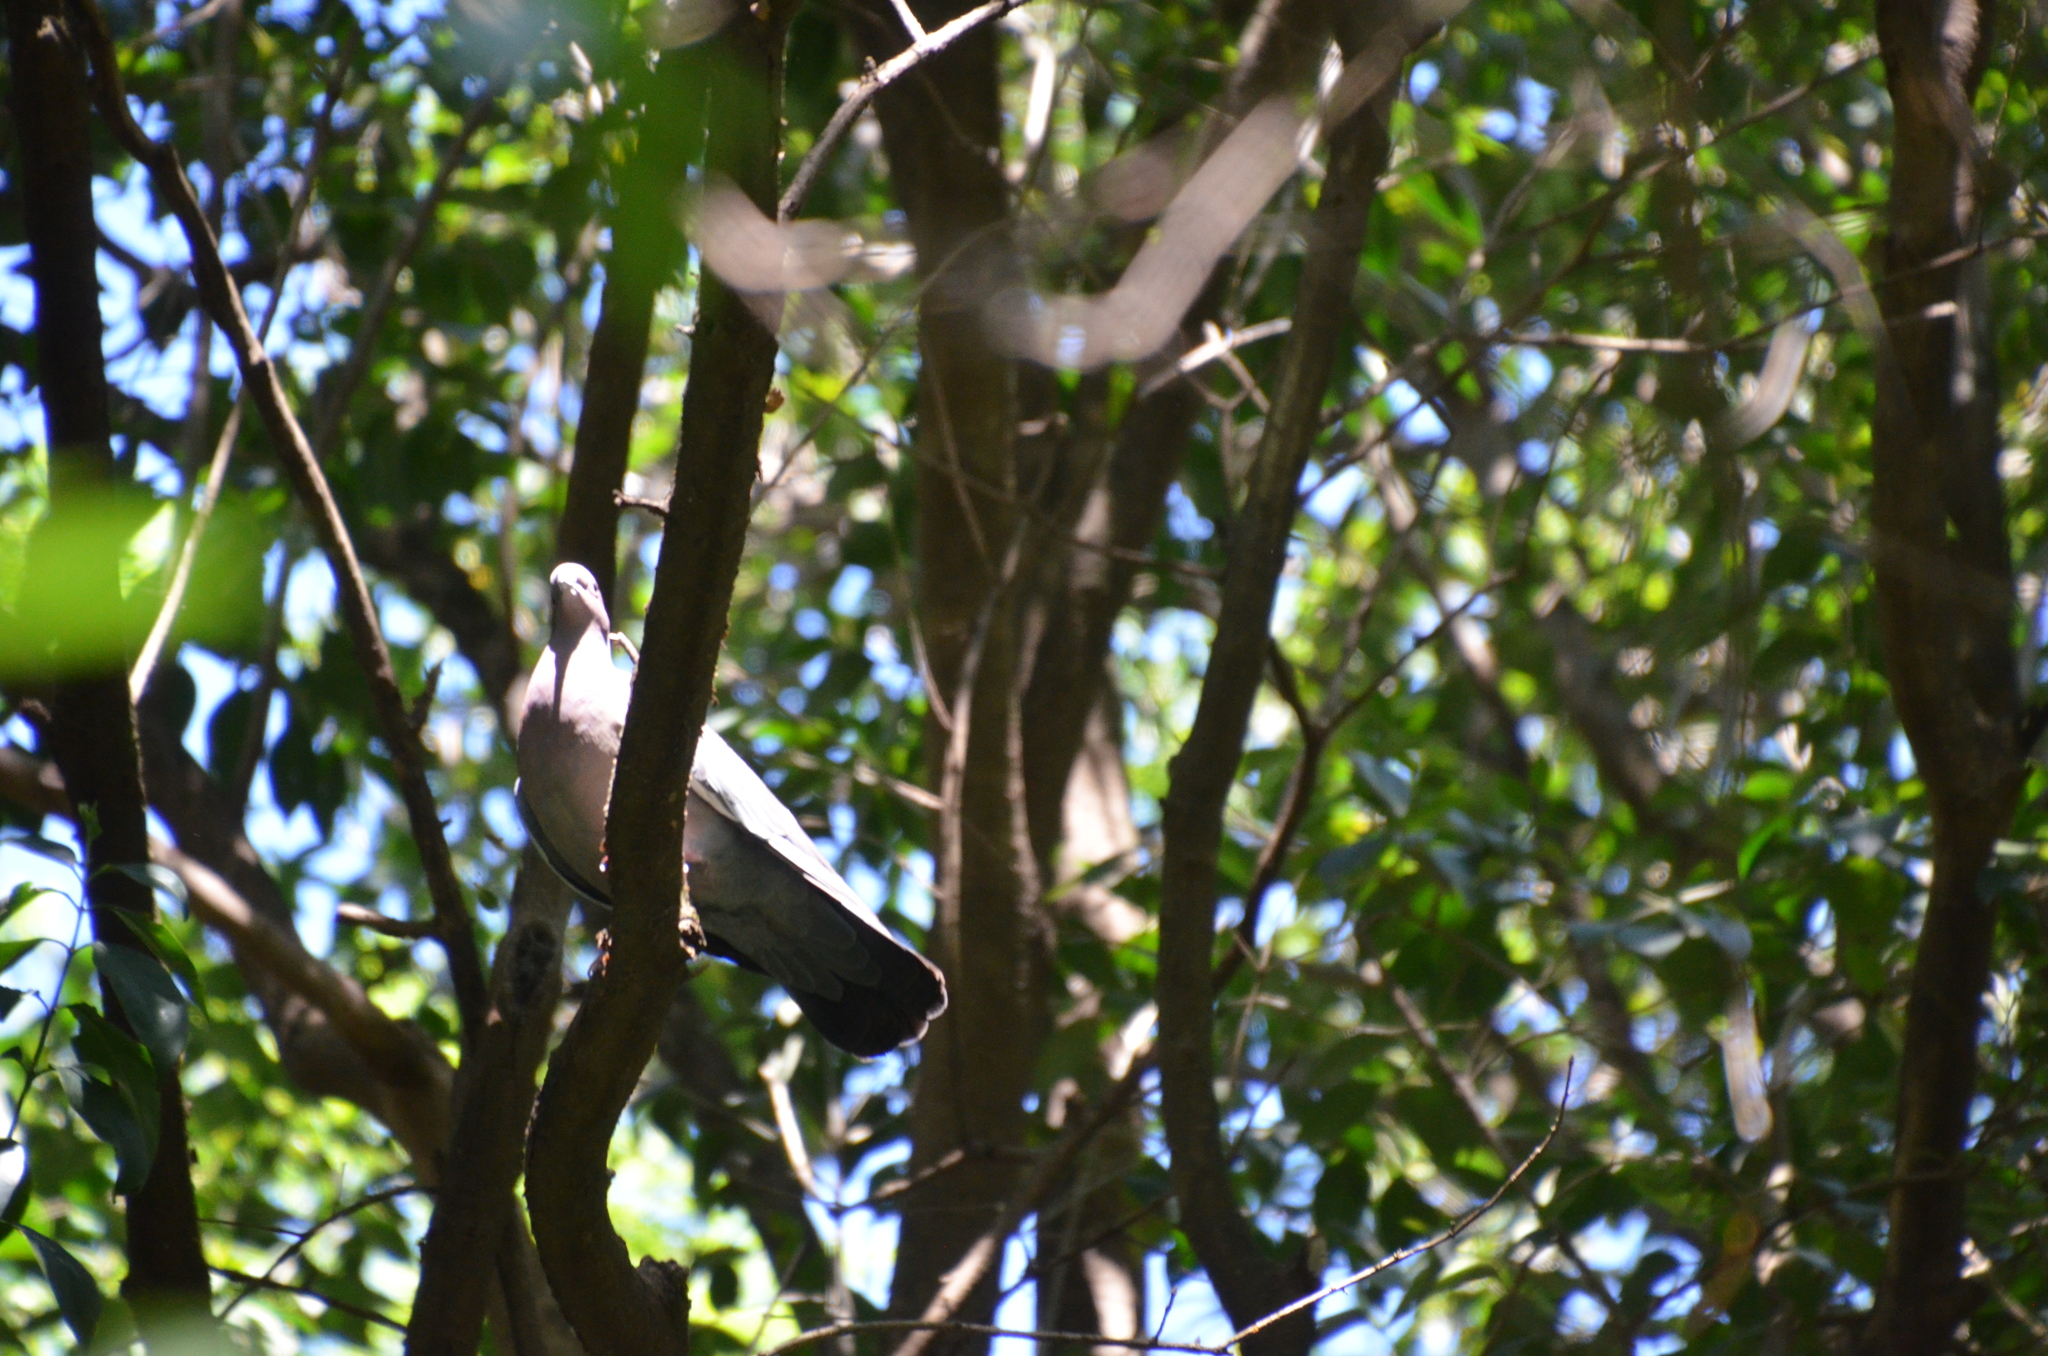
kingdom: Animalia
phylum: Chordata
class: Aves
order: Columbiformes
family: Columbidae
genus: Patagioenas
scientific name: Patagioenas picazuro
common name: Picazuro pigeon
